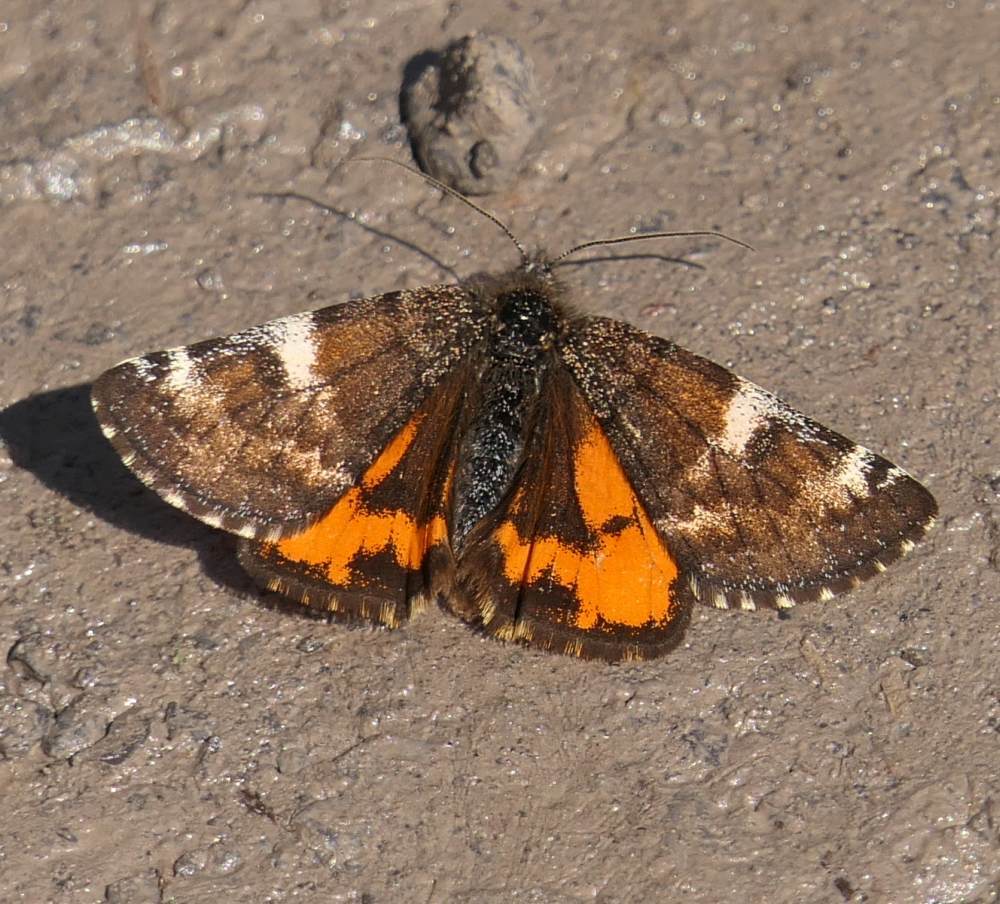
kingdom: Animalia
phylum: Arthropoda
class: Insecta
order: Lepidoptera
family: Geometridae
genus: Archiearis
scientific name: Archiearis infans
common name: First born geometer
